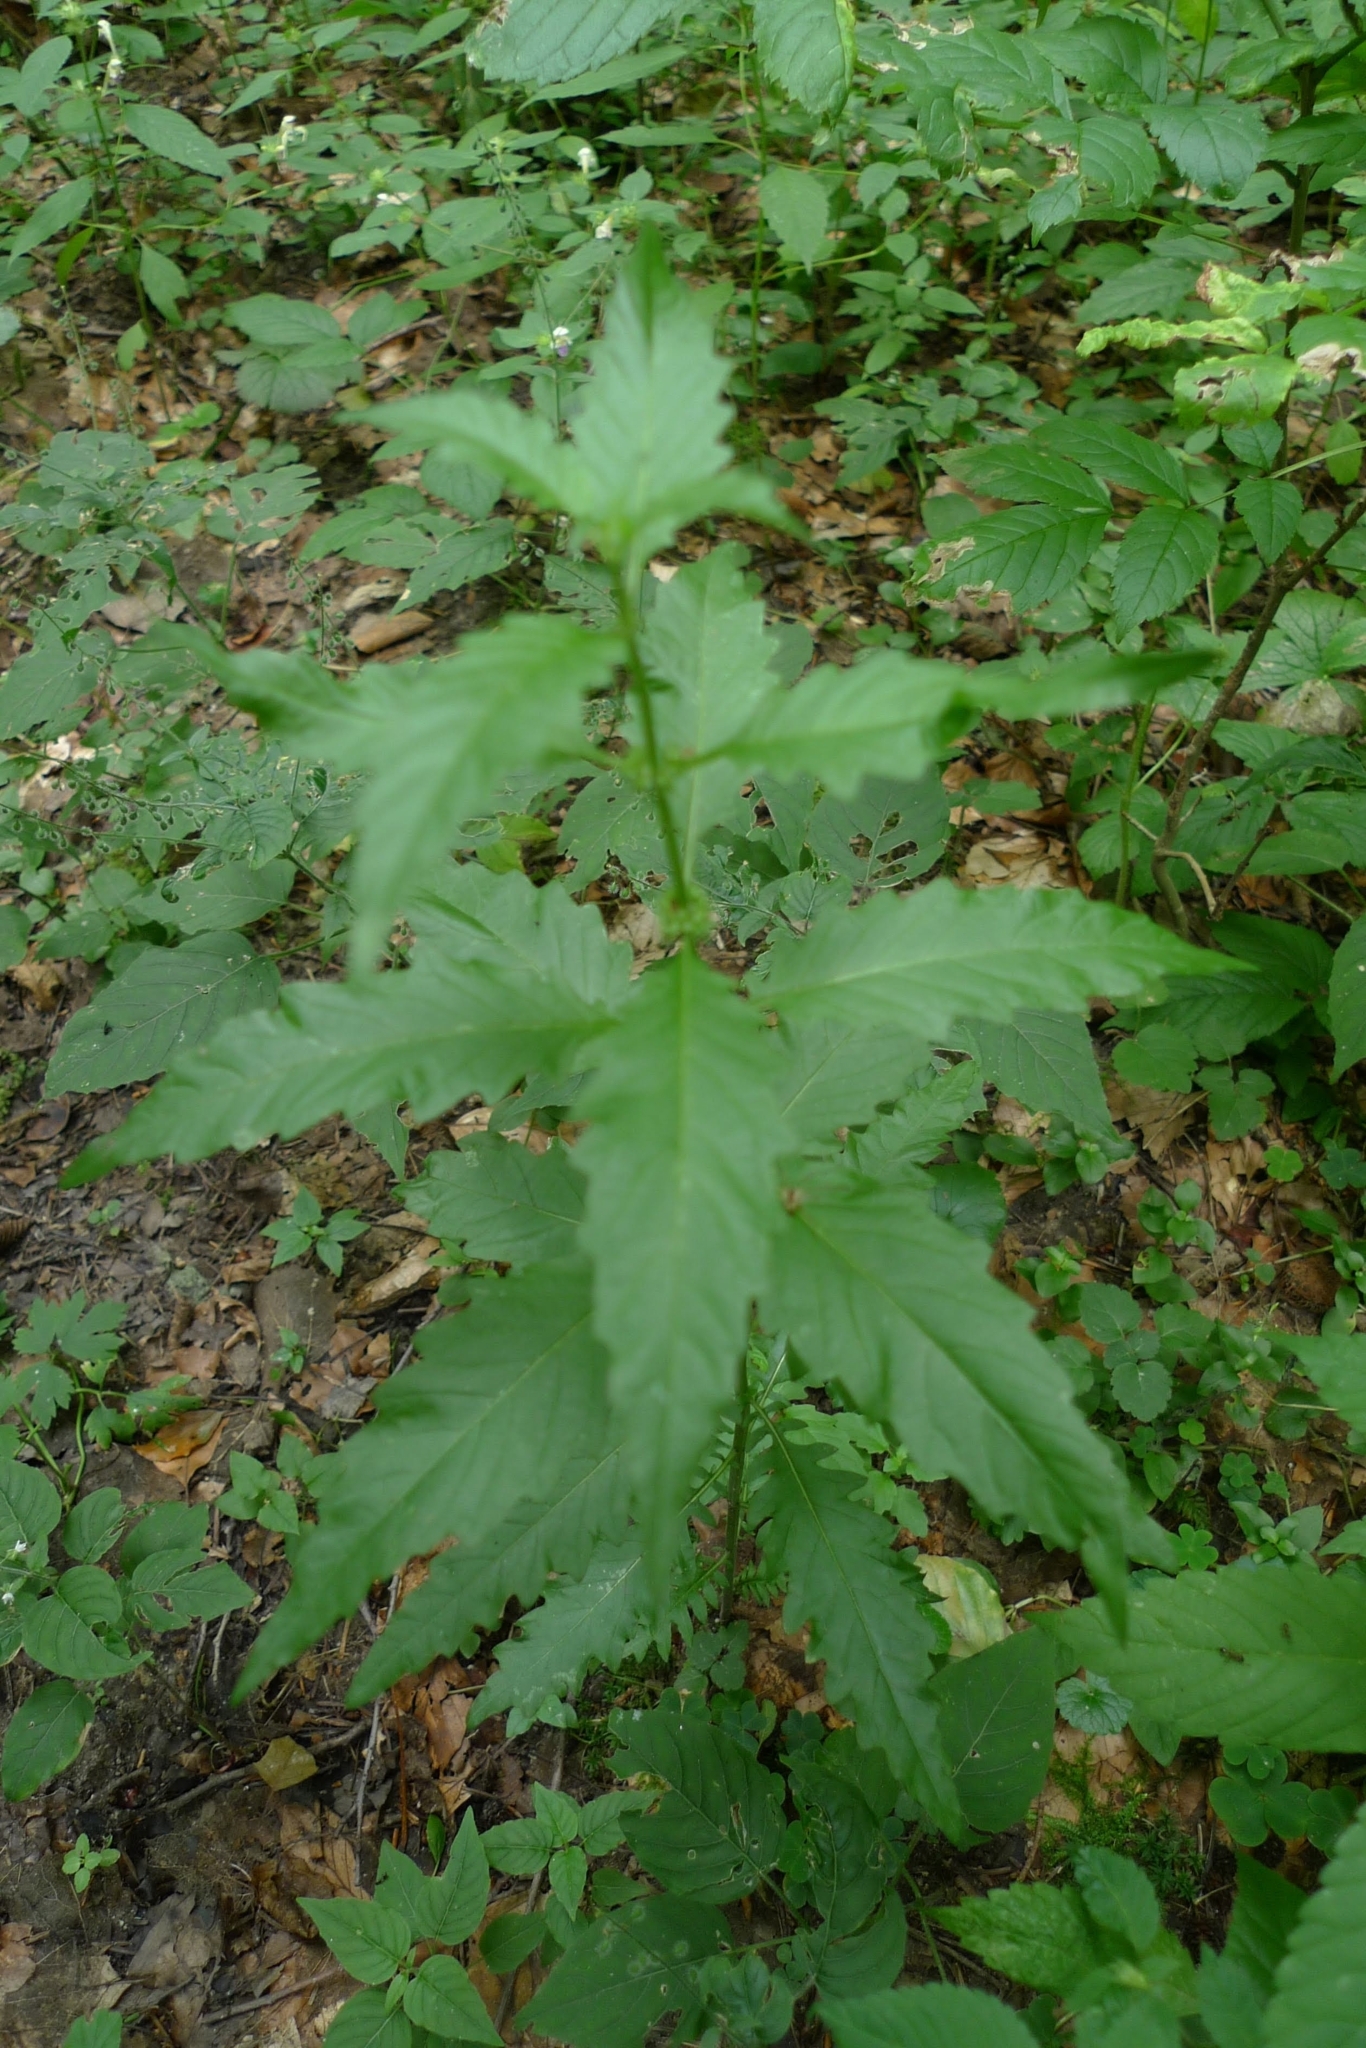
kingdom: Plantae
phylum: Tracheophyta
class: Magnoliopsida
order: Lamiales
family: Lamiaceae
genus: Lycopus
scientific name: Lycopus europaeus
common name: European bugleweed
